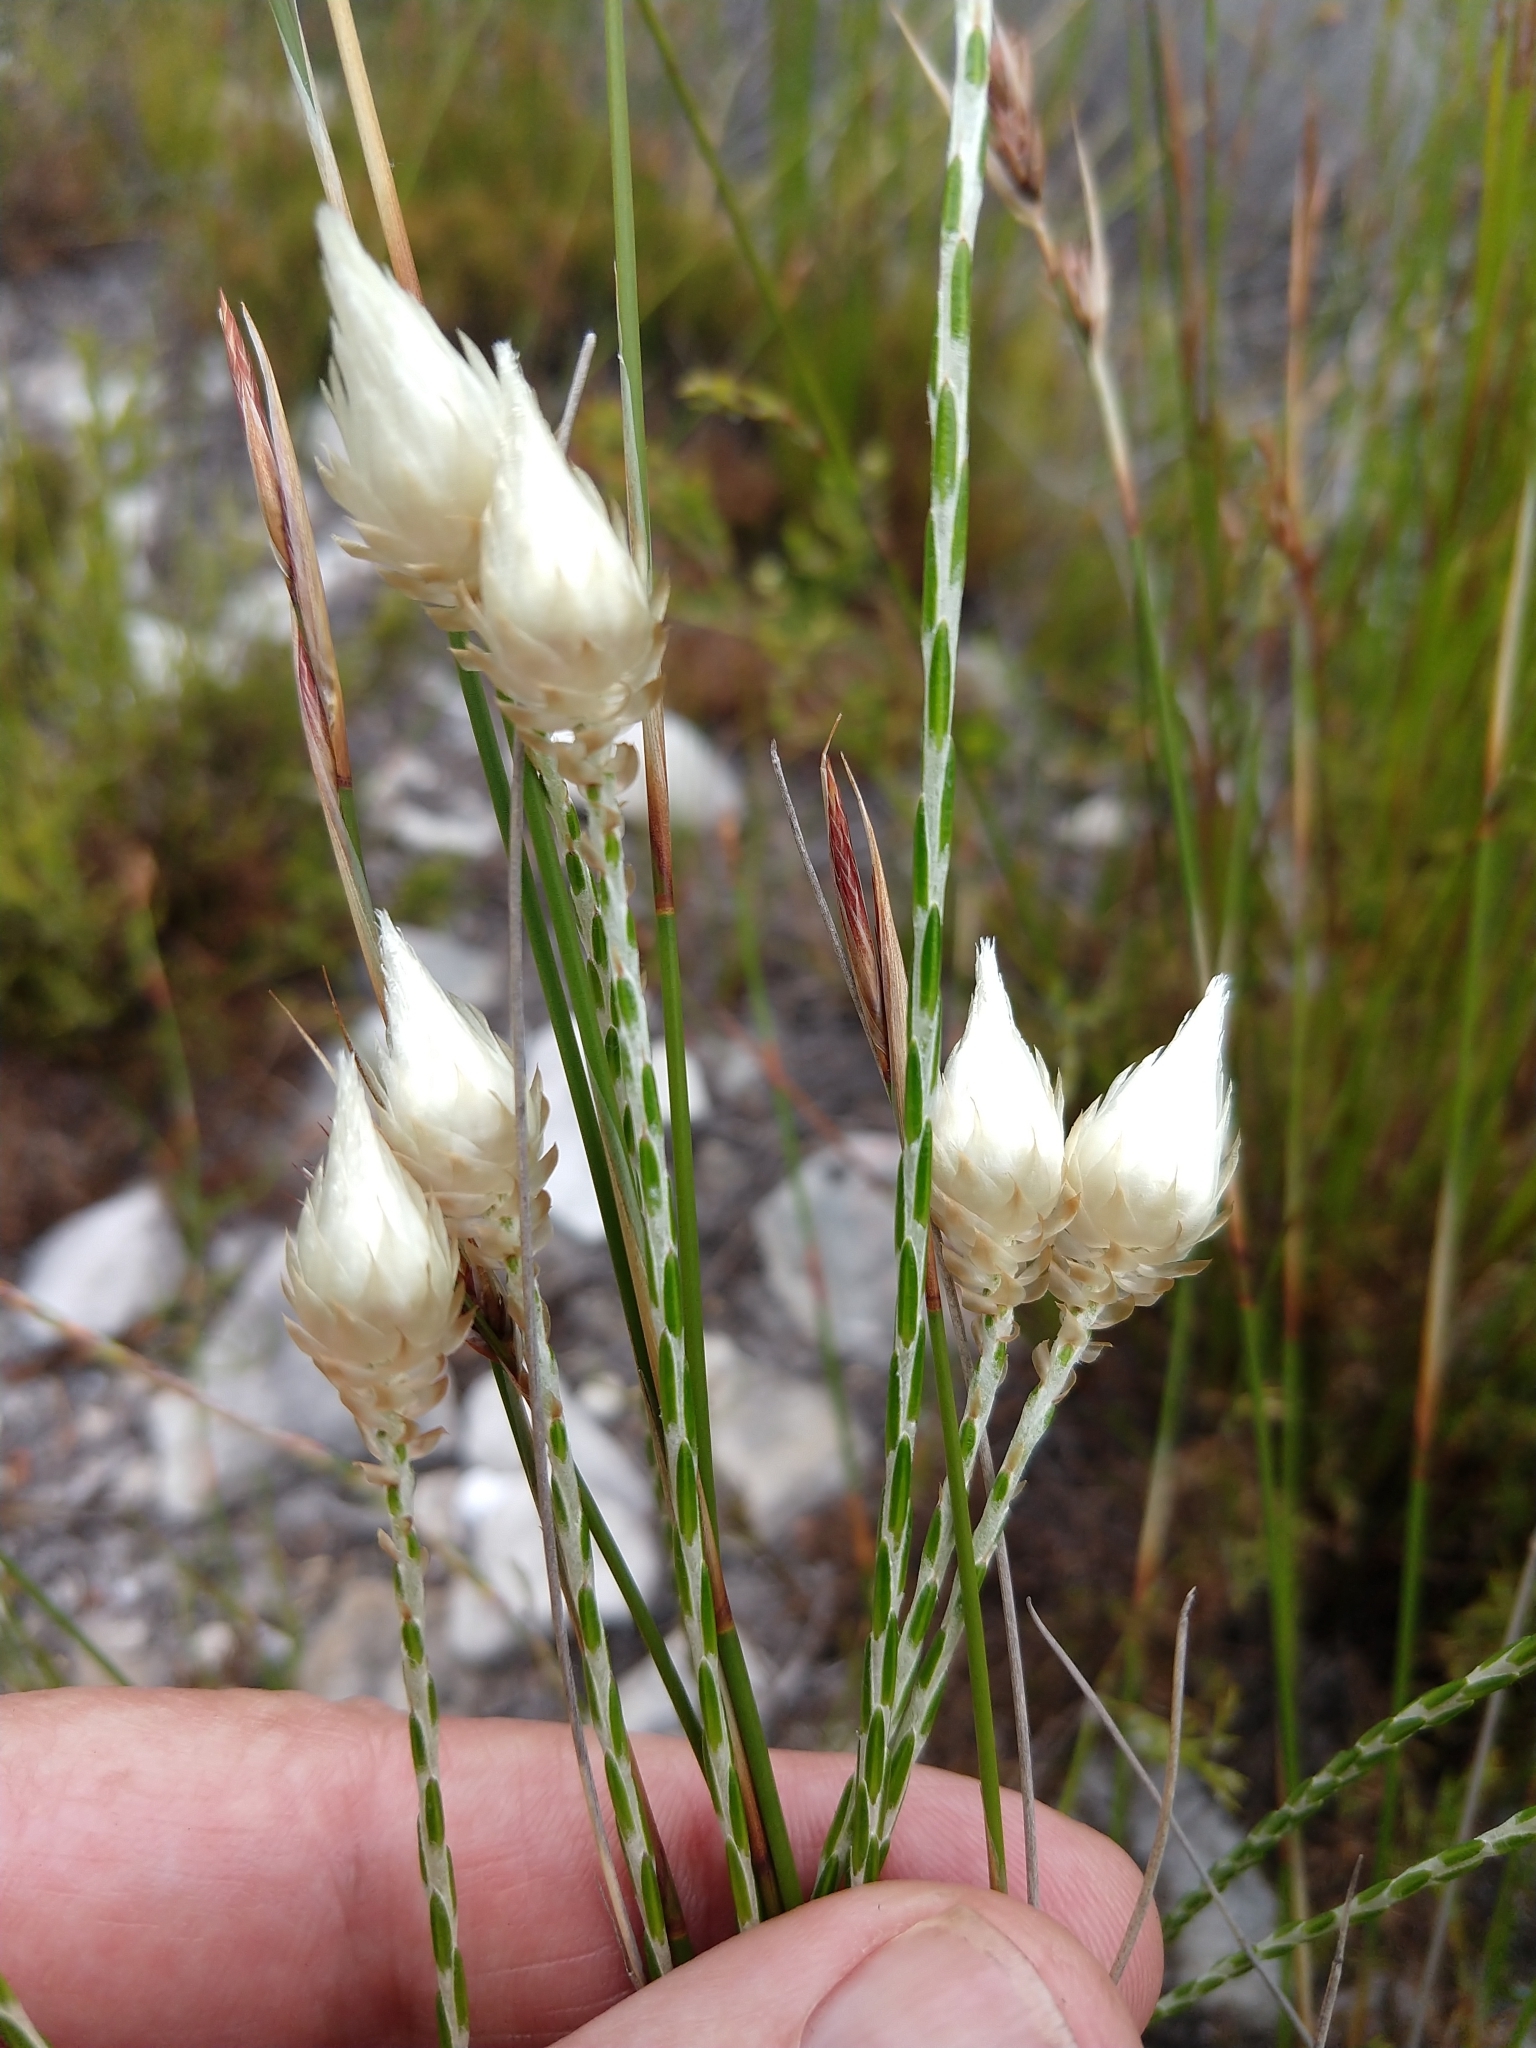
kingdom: Plantae
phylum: Tracheophyta
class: Magnoliopsida
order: Asterales
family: Asteraceae
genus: Edmondia
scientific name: Edmondia sesamoides
